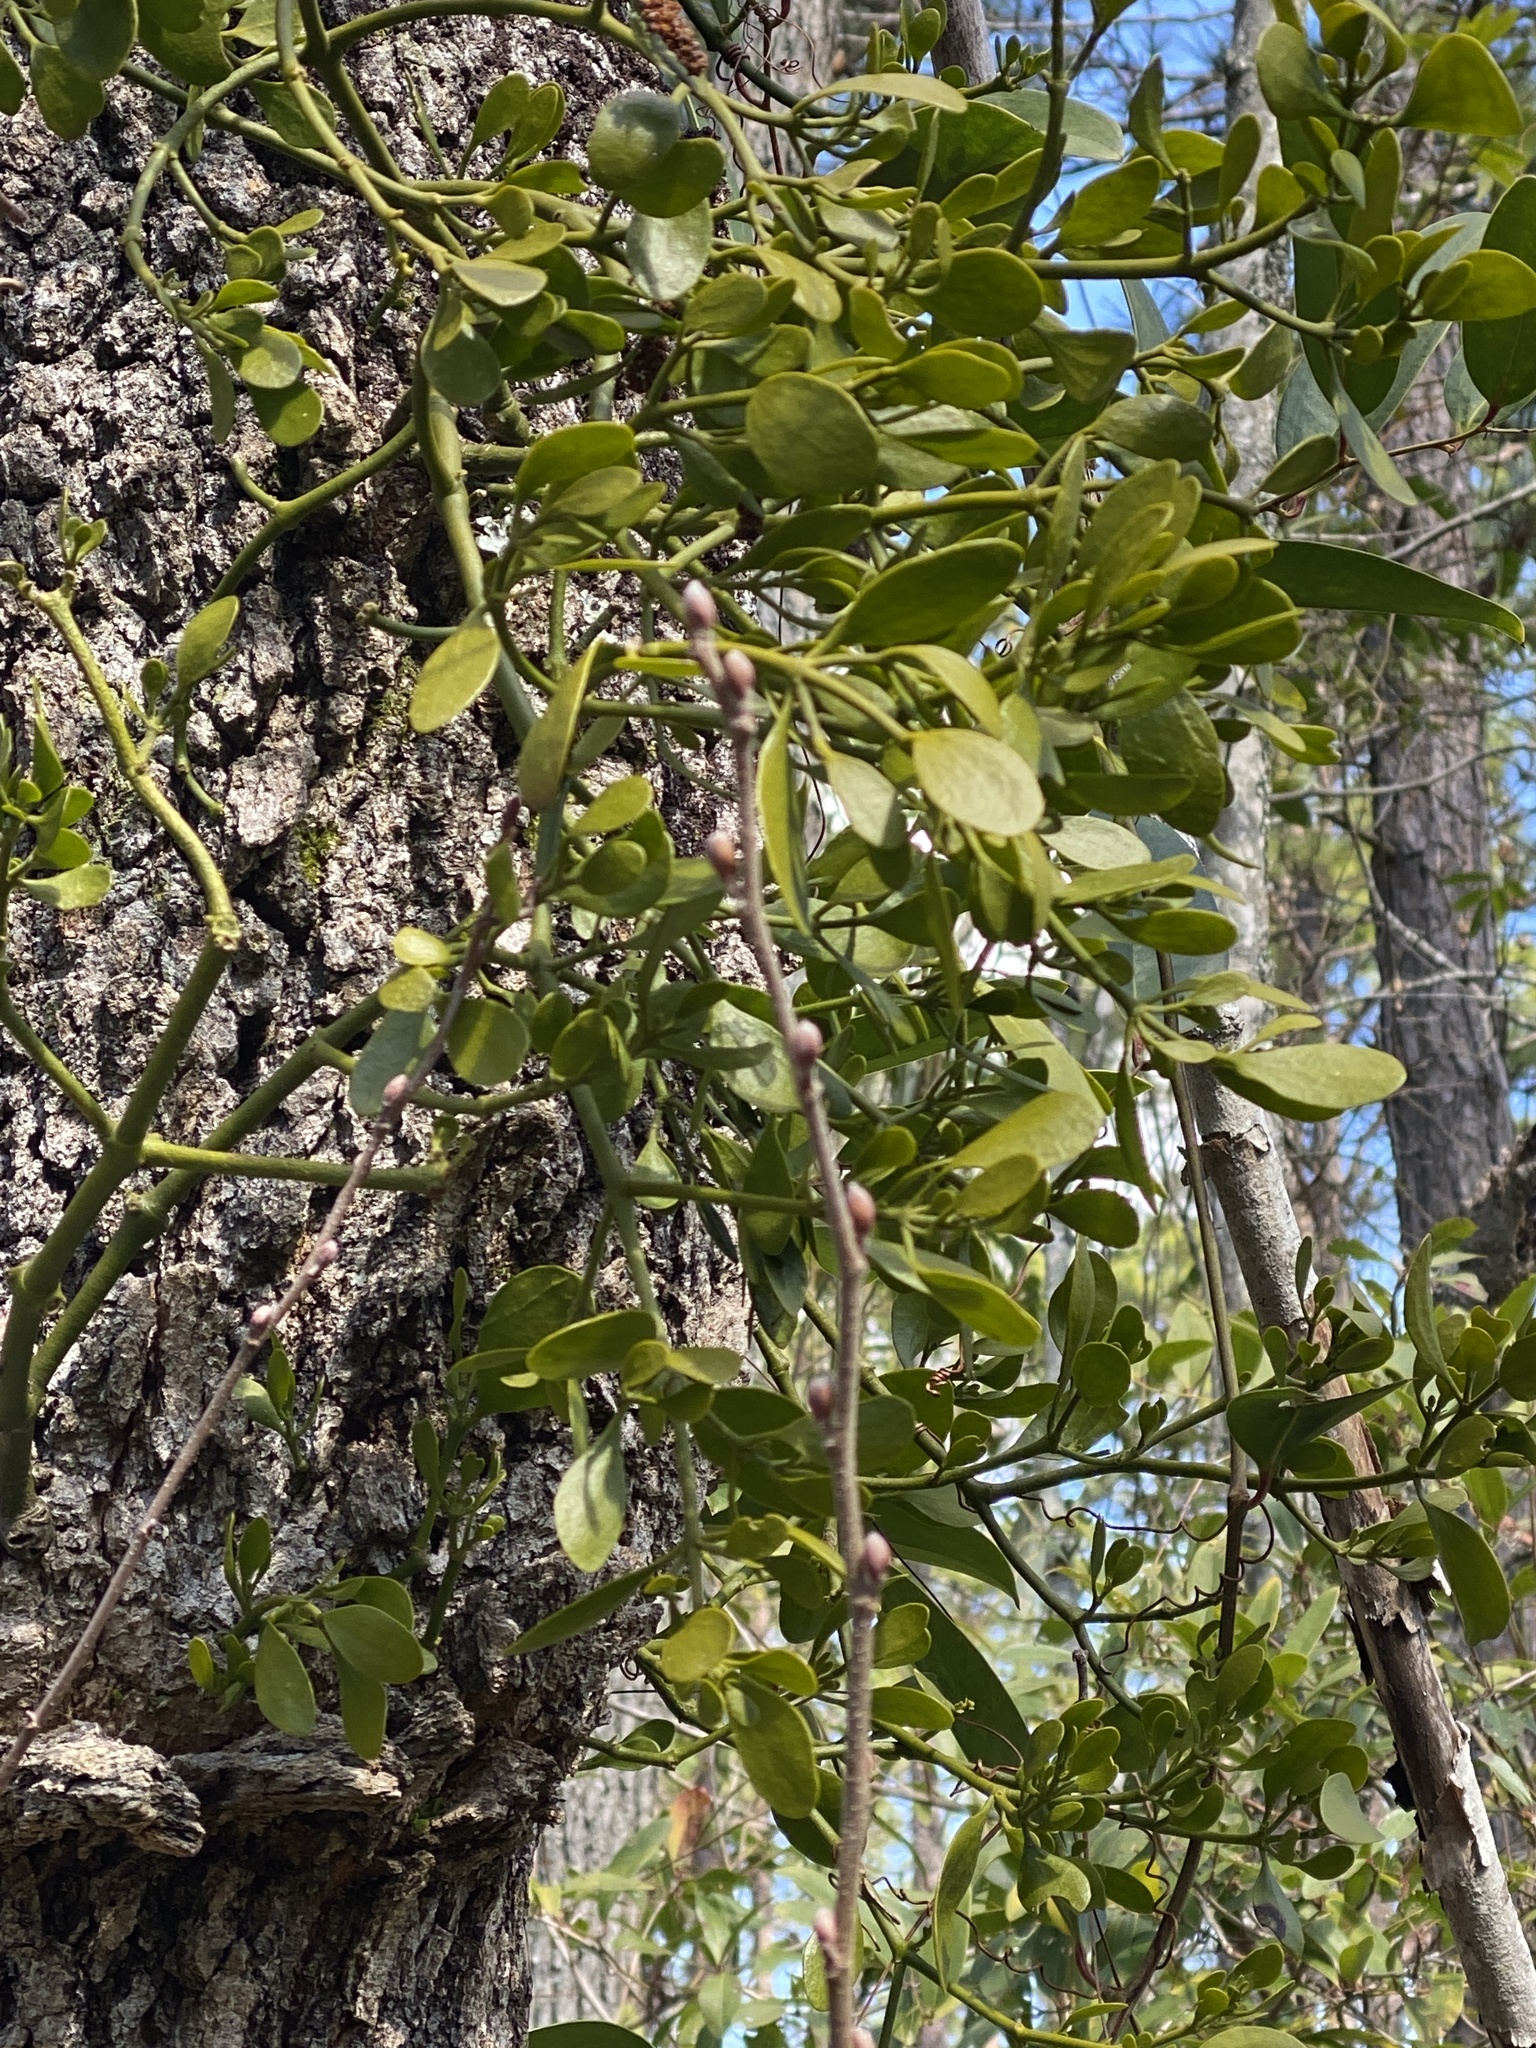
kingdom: Plantae
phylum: Tracheophyta
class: Magnoliopsida
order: Santalales
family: Viscaceae
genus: Phoradendron
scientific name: Phoradendron leucarpum
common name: Pacific mistletoe
